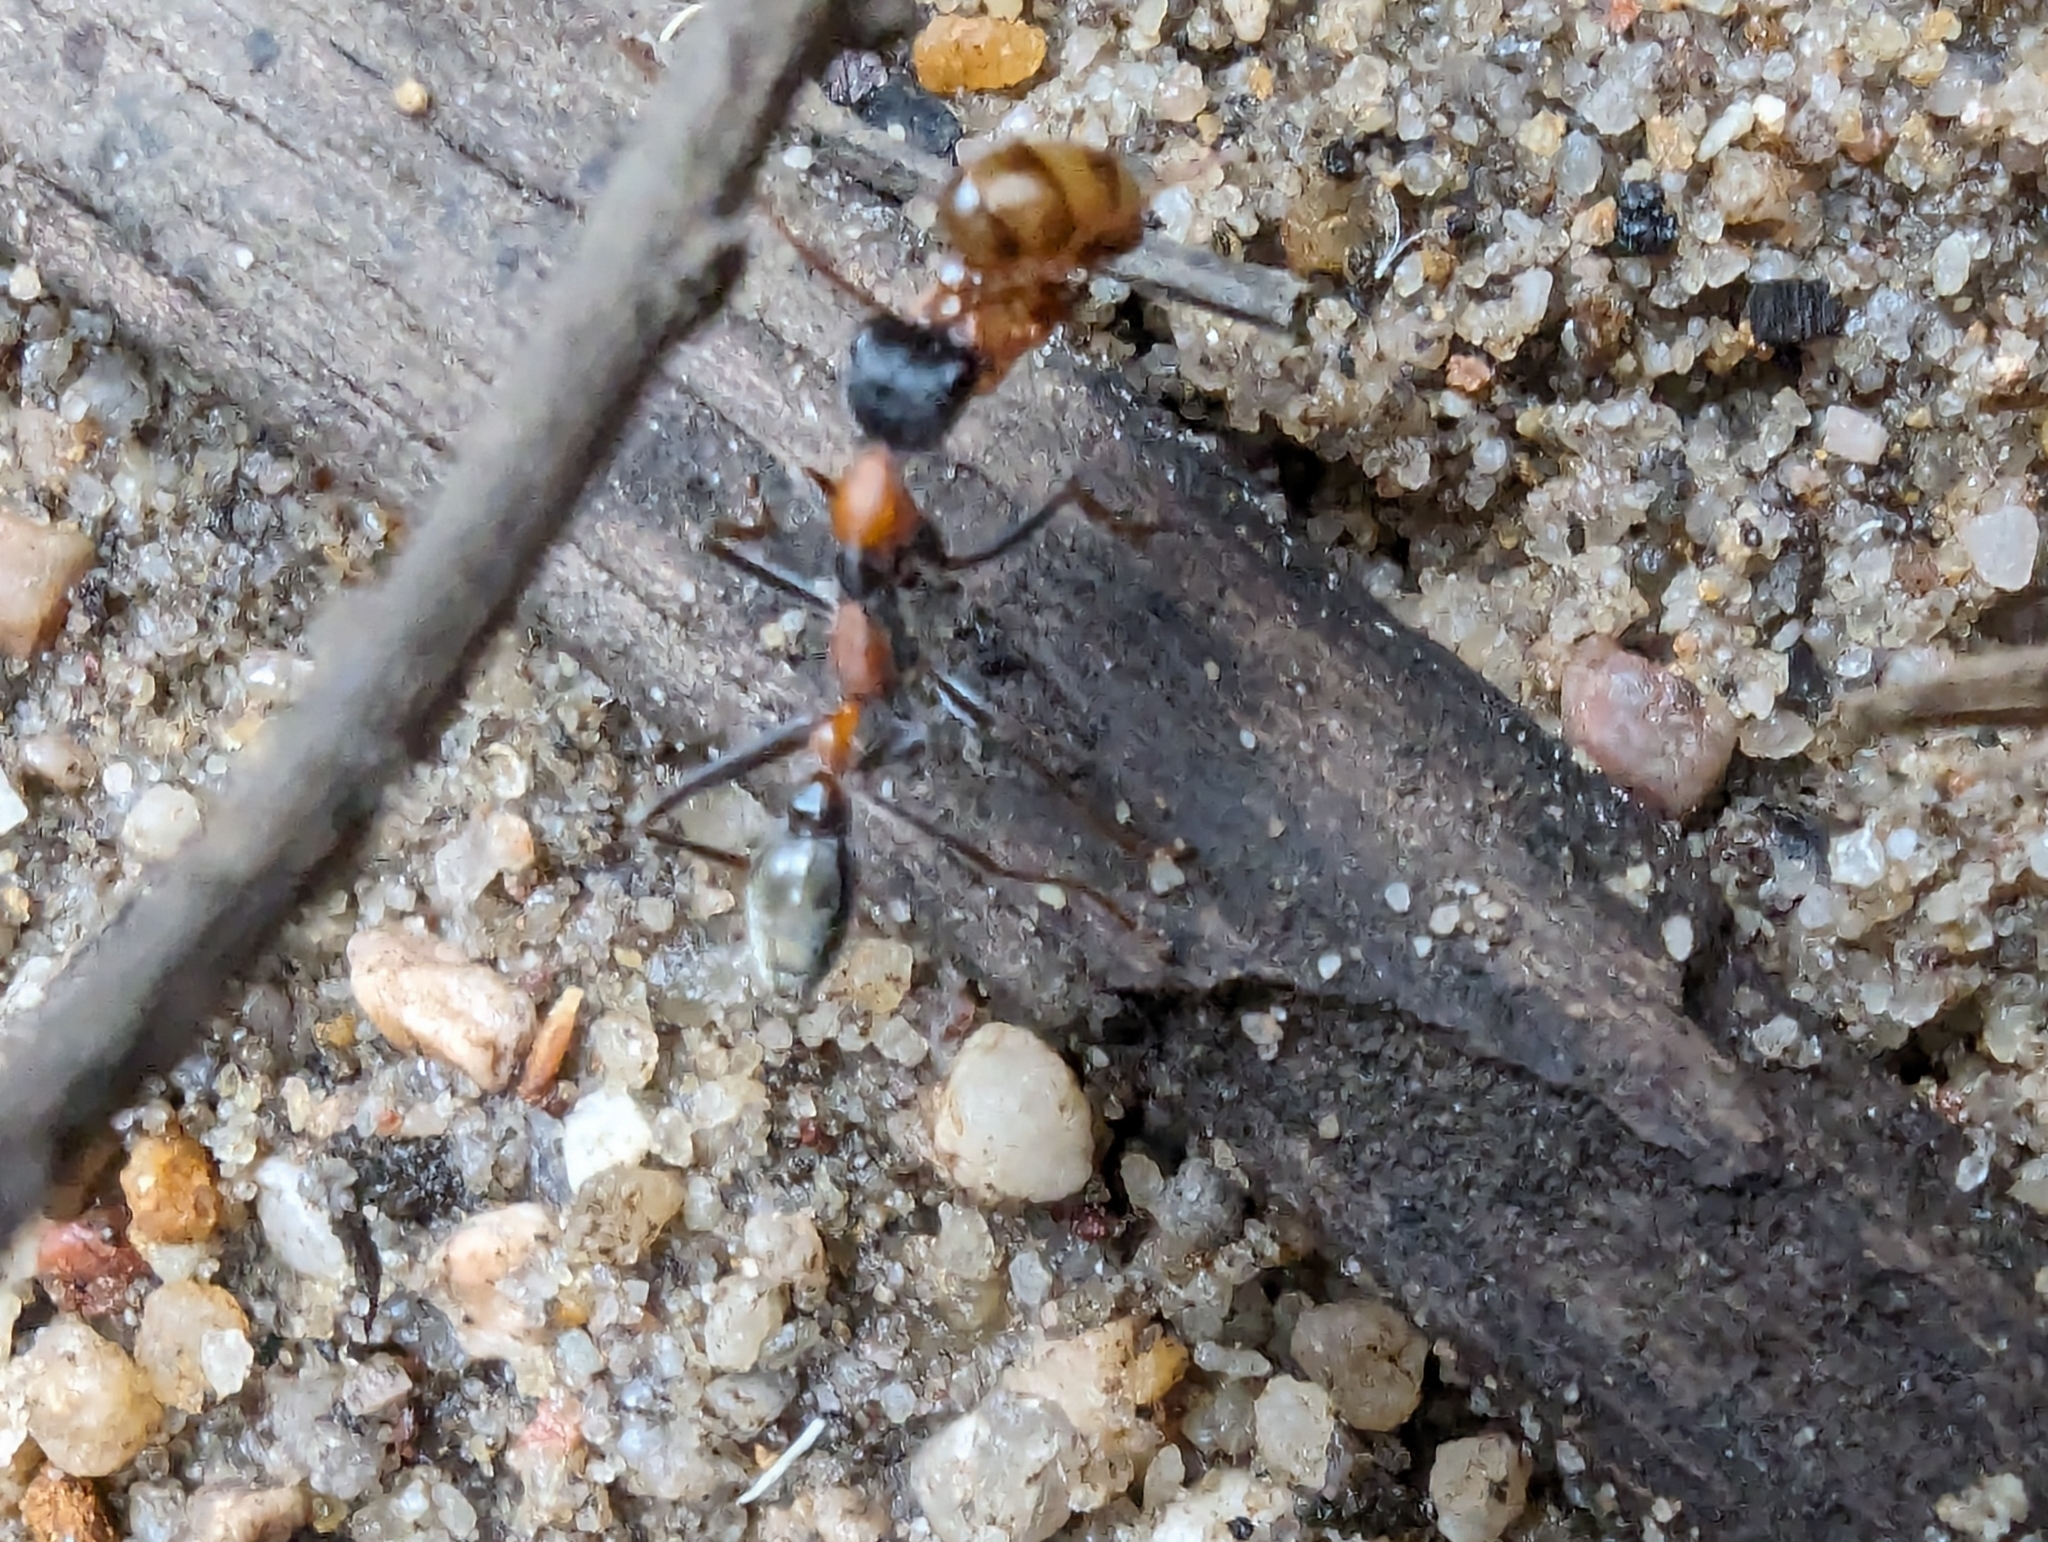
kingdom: Animalia
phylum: Arthropoda
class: Insecta
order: Hymenoptera
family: Formicidae
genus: Myrmecia
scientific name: Myrmecia nigrocincta
